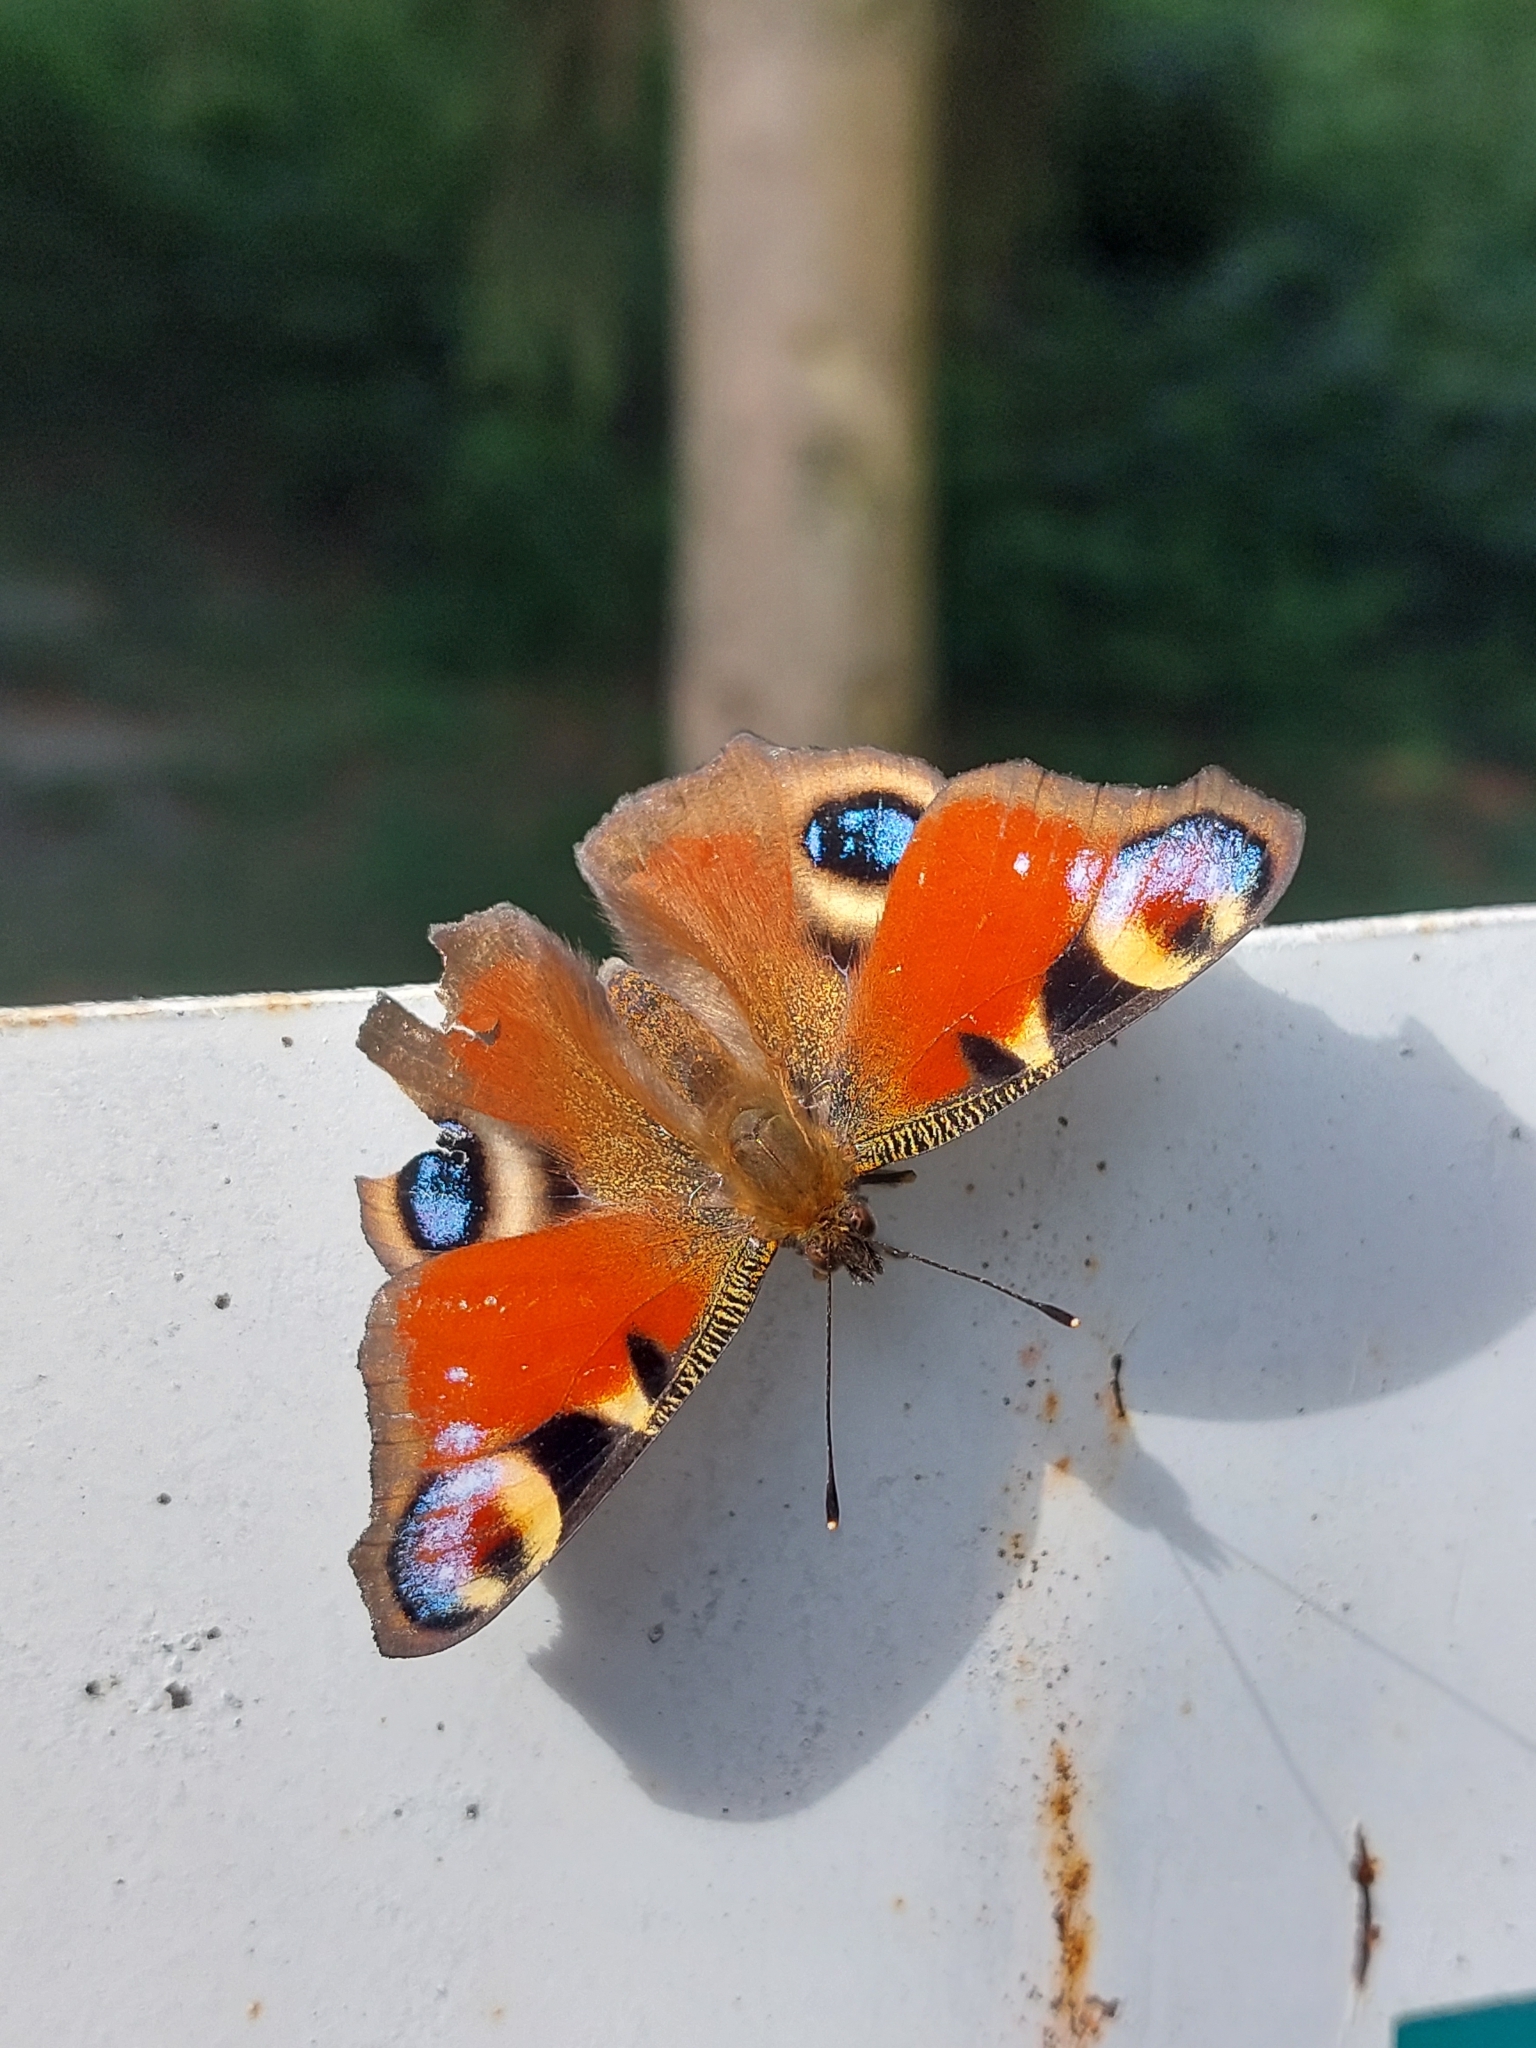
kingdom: Animalia
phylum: Arthropoda
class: Insecta
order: Lepidoptera
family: Nymphalidae
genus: Aglais
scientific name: Aglais io
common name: Peacock
